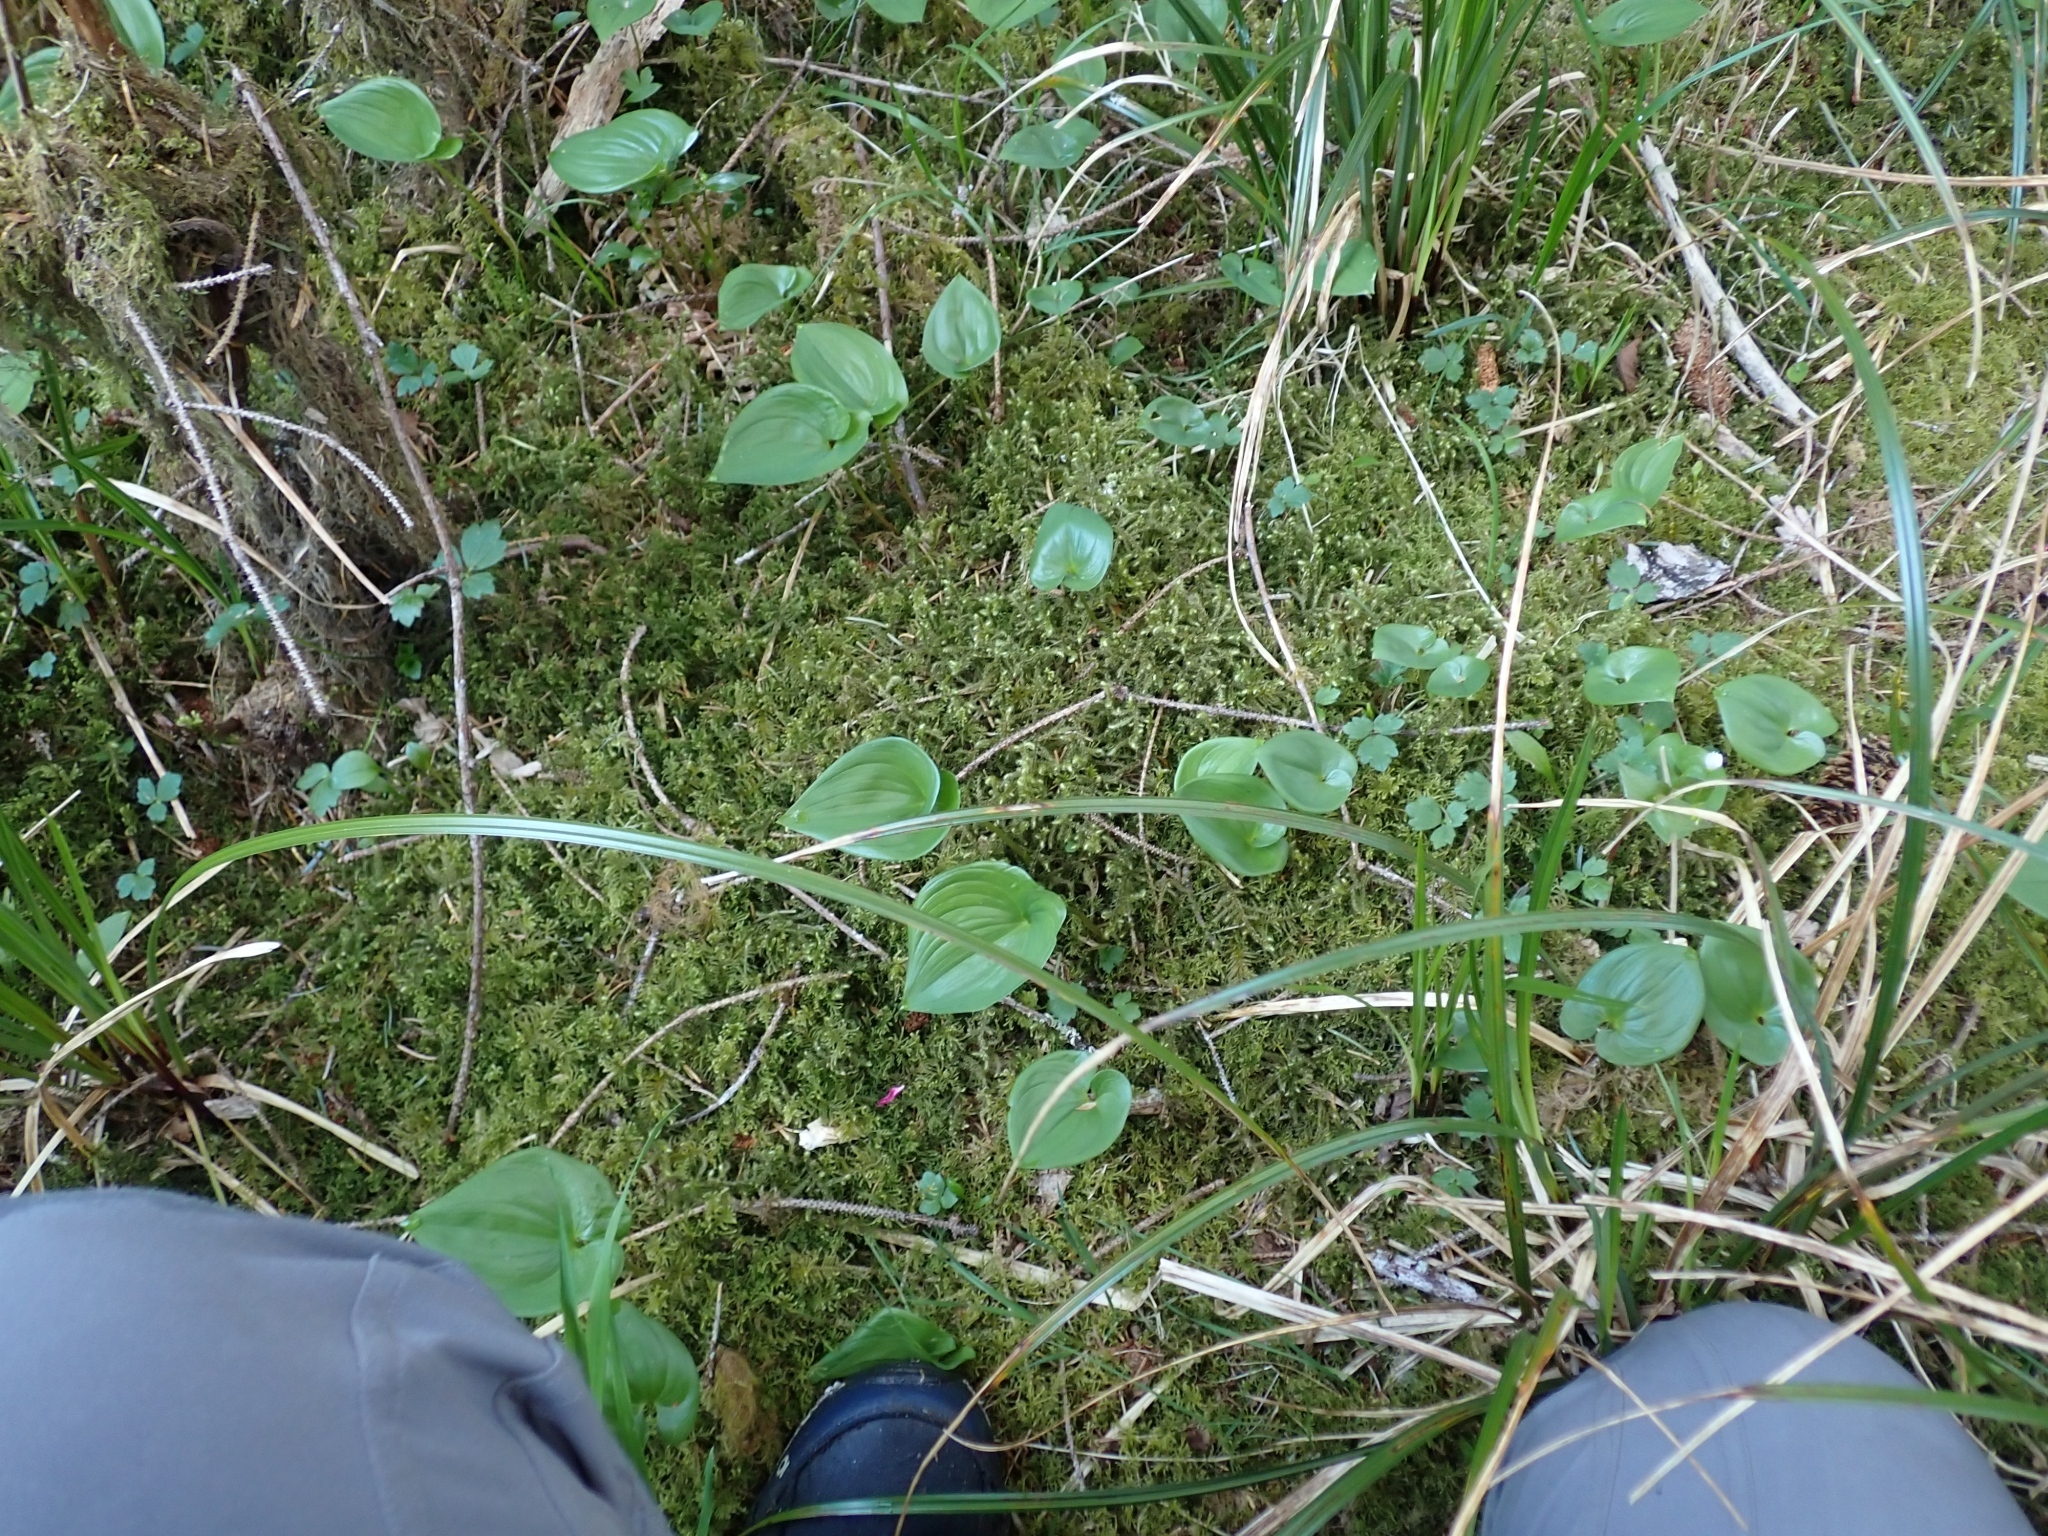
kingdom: Plantae
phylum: Tracheophyta
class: Liliopsida
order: Asparagales
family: Asparagaceae
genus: Maianthemum
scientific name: Maianthemum dilatatum
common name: False lily-of-the-valley
